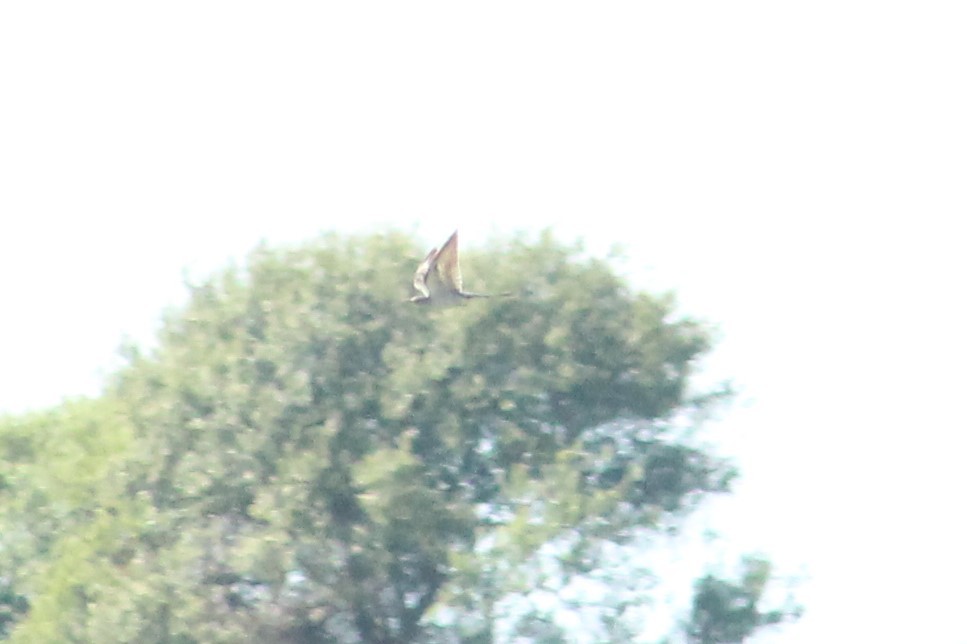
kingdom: Animalia
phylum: Chordata
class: Aves
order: Cuculiformes
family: Cuculidae
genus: Cuculus
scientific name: Cuculus canorus
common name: Common cuckoo
